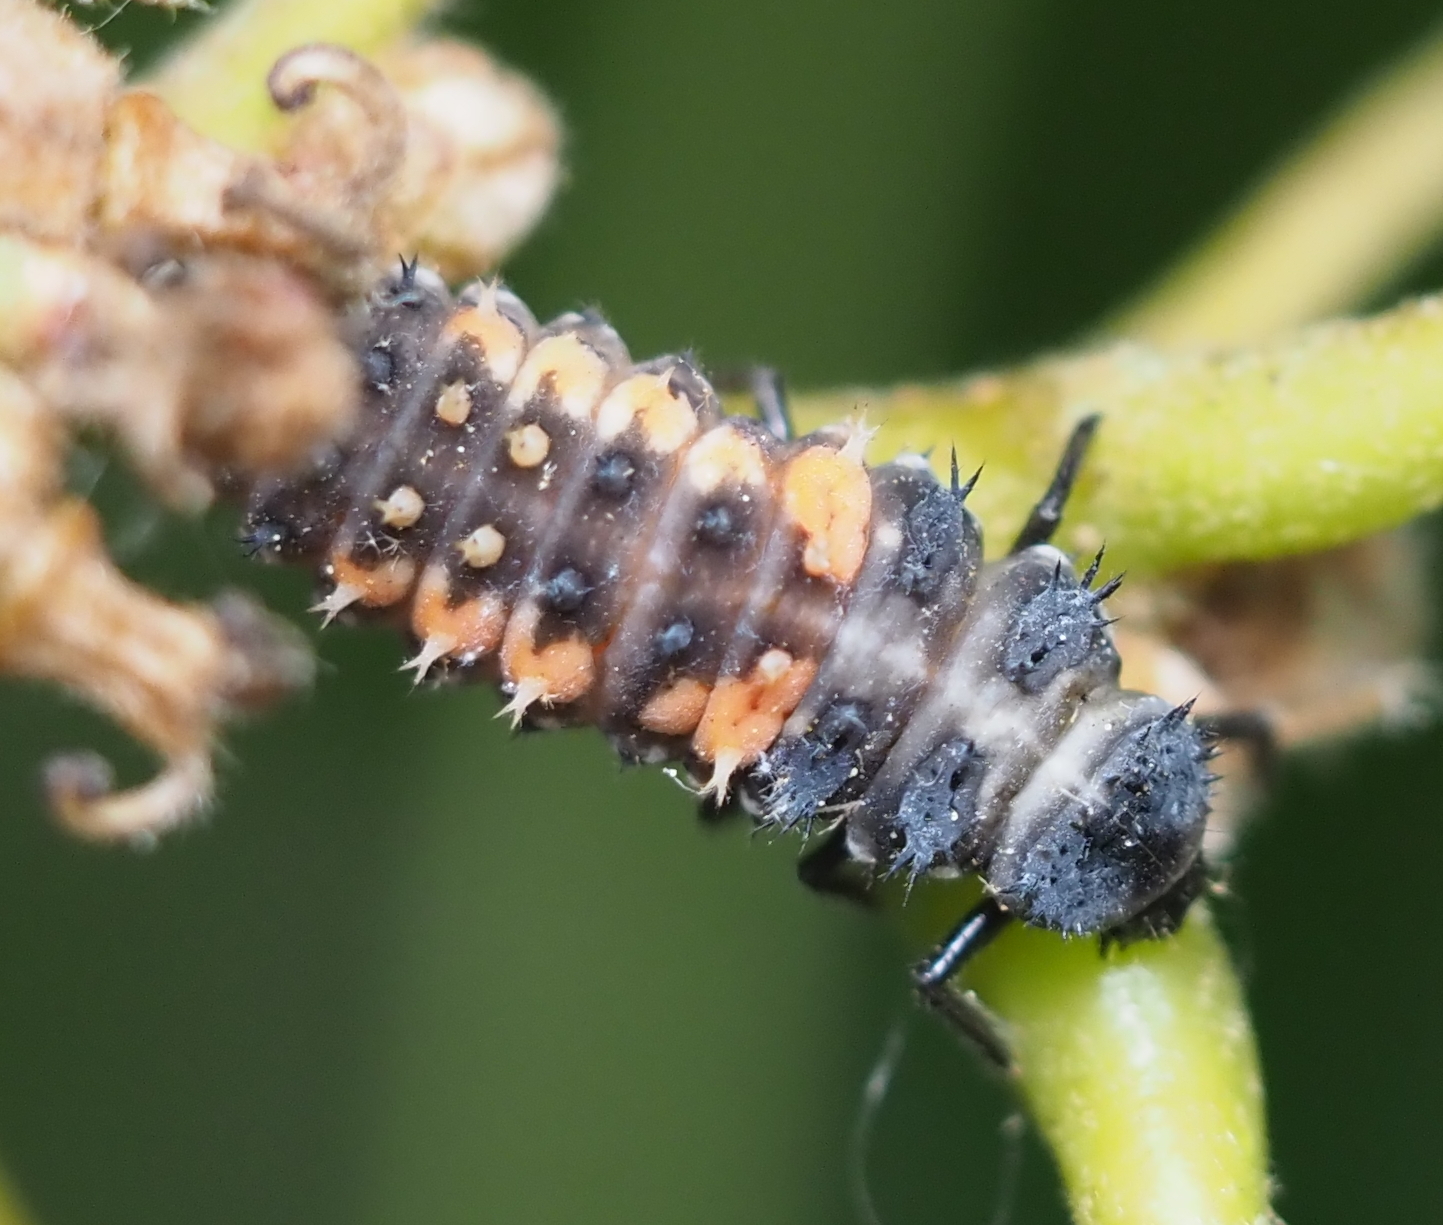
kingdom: Animalia
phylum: Arthropoda
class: Insecta
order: Coleoptera
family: Coccinellidae
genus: Harmonia
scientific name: Harmonia axyridis
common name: Harlequin ladybird
